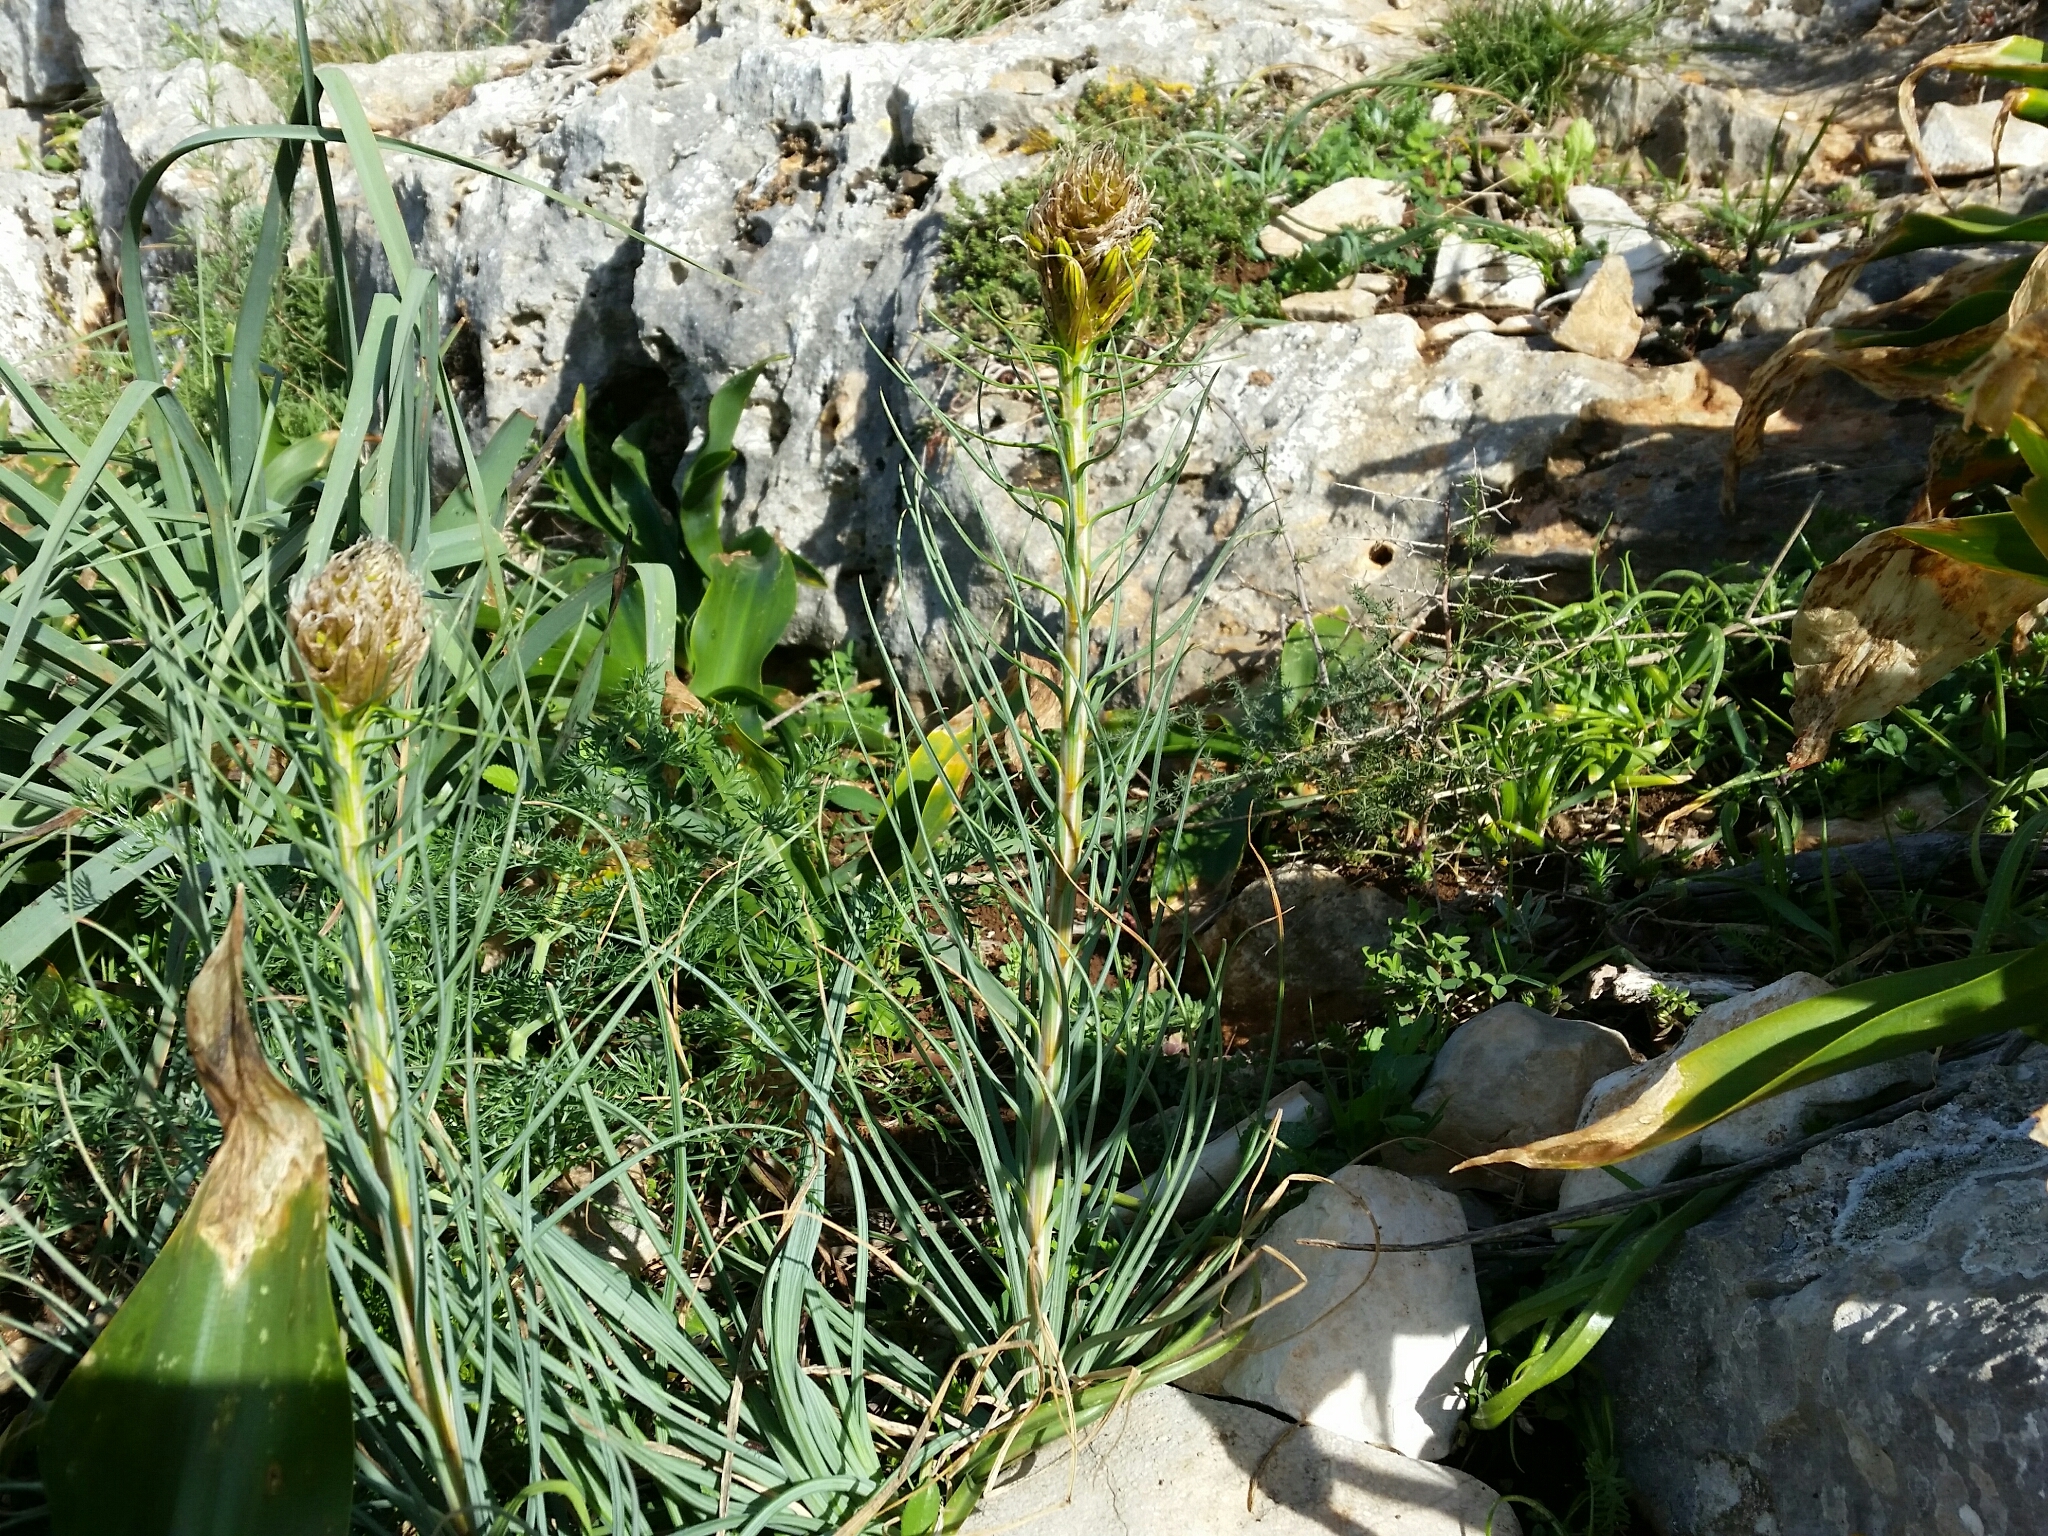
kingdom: Plantae
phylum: Tracheophyta
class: Liliopsida
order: Asparagales
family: Asphodelaceae
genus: Asphodeline
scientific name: Asphodeline lutea
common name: Yellow asphodel
